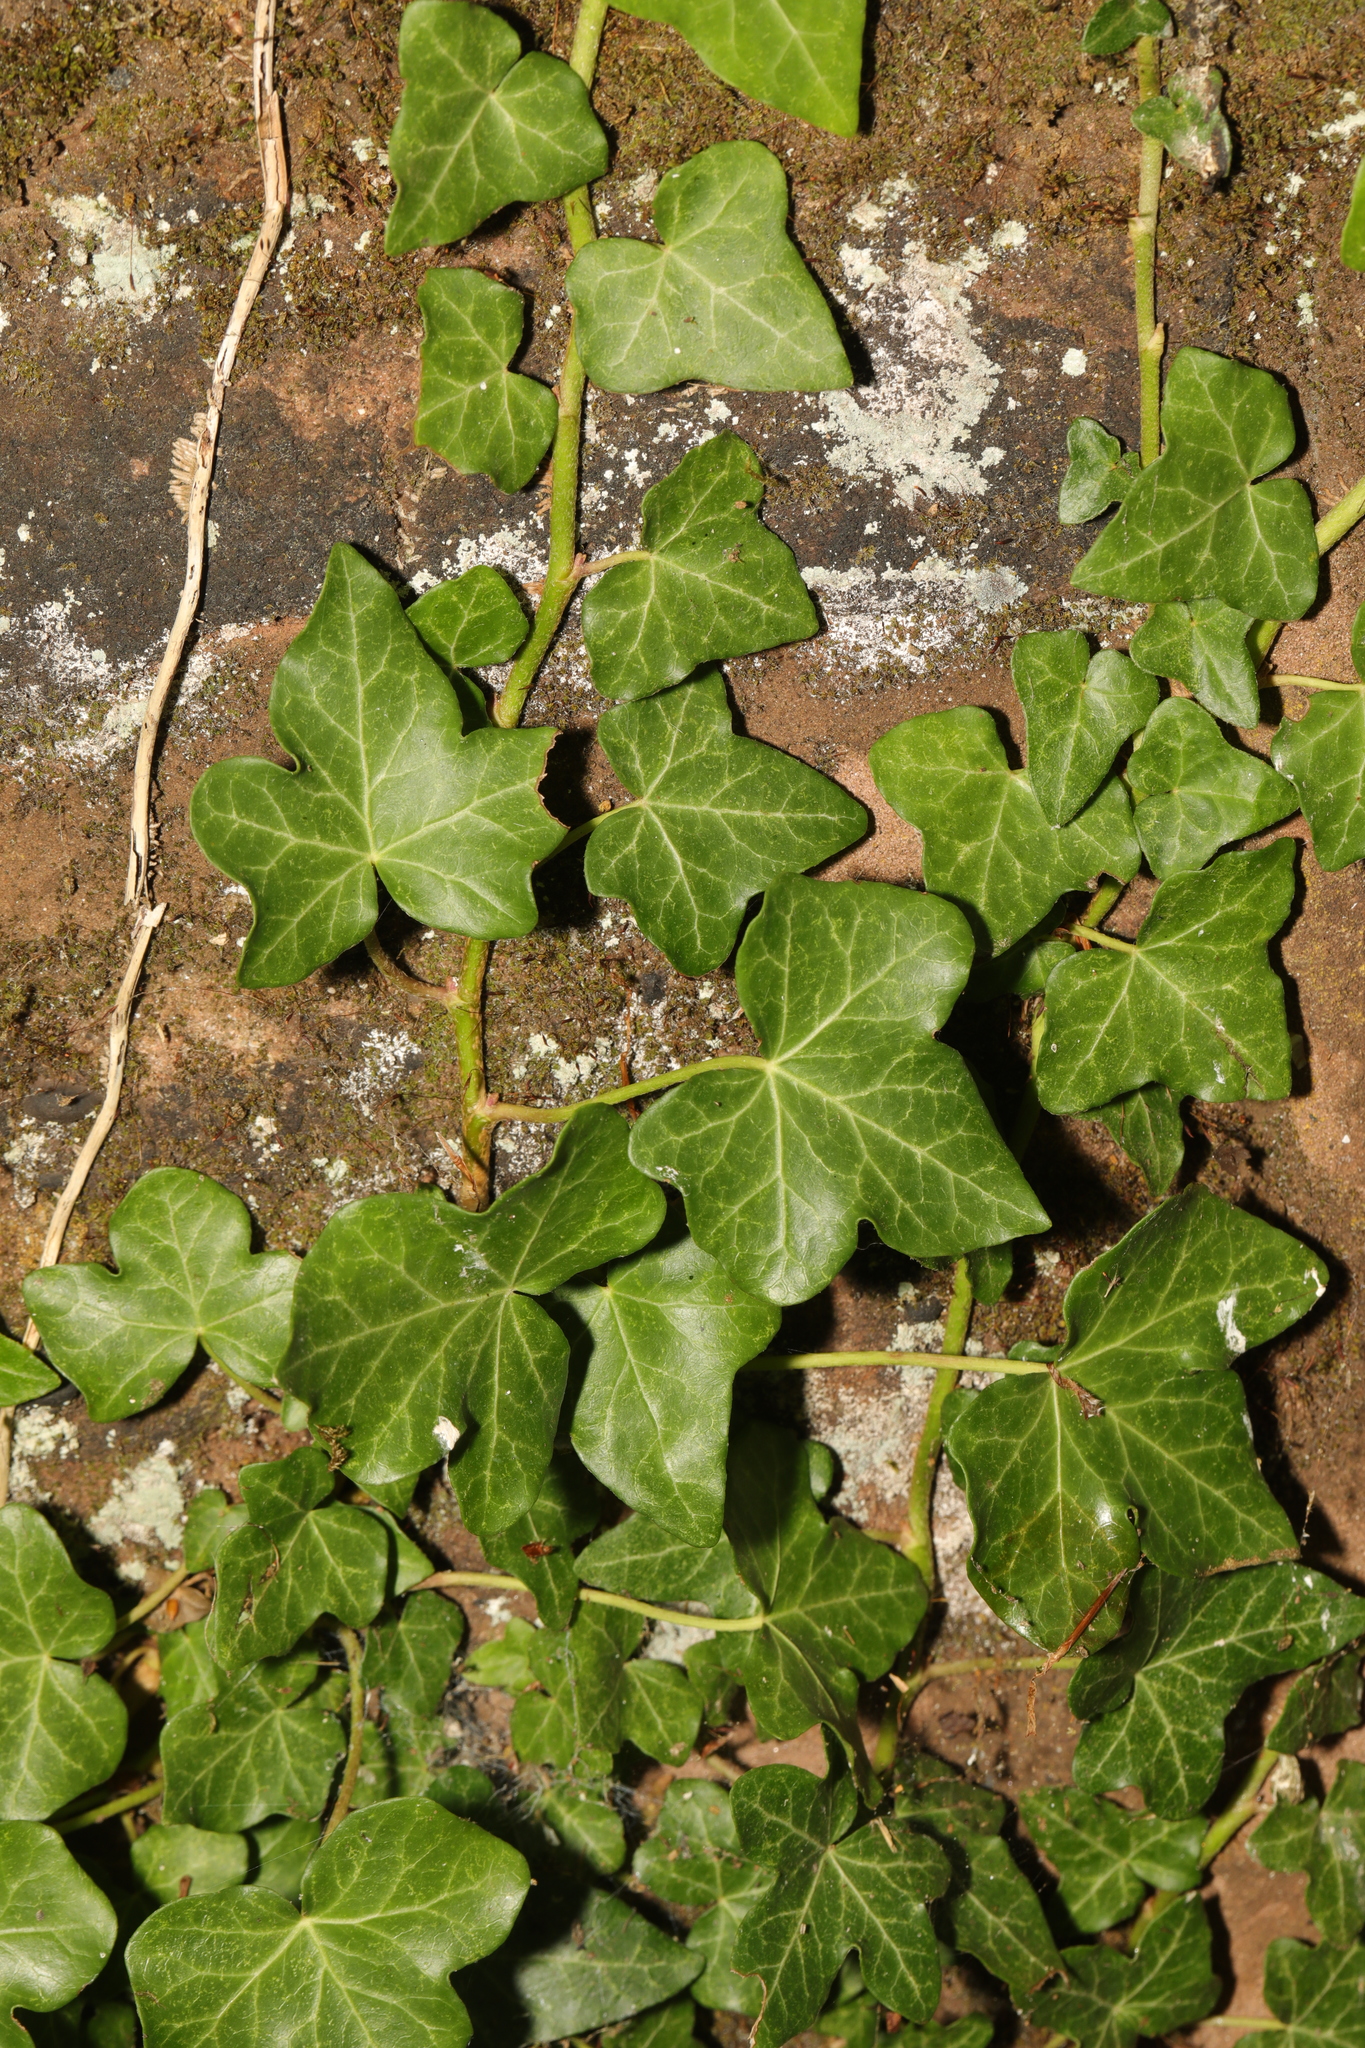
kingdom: Plantae
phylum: Tracheophyta
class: Magnoliopsida
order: Apiales
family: Araliaceae
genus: Hedera
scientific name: Hedera helix
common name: Ivy
